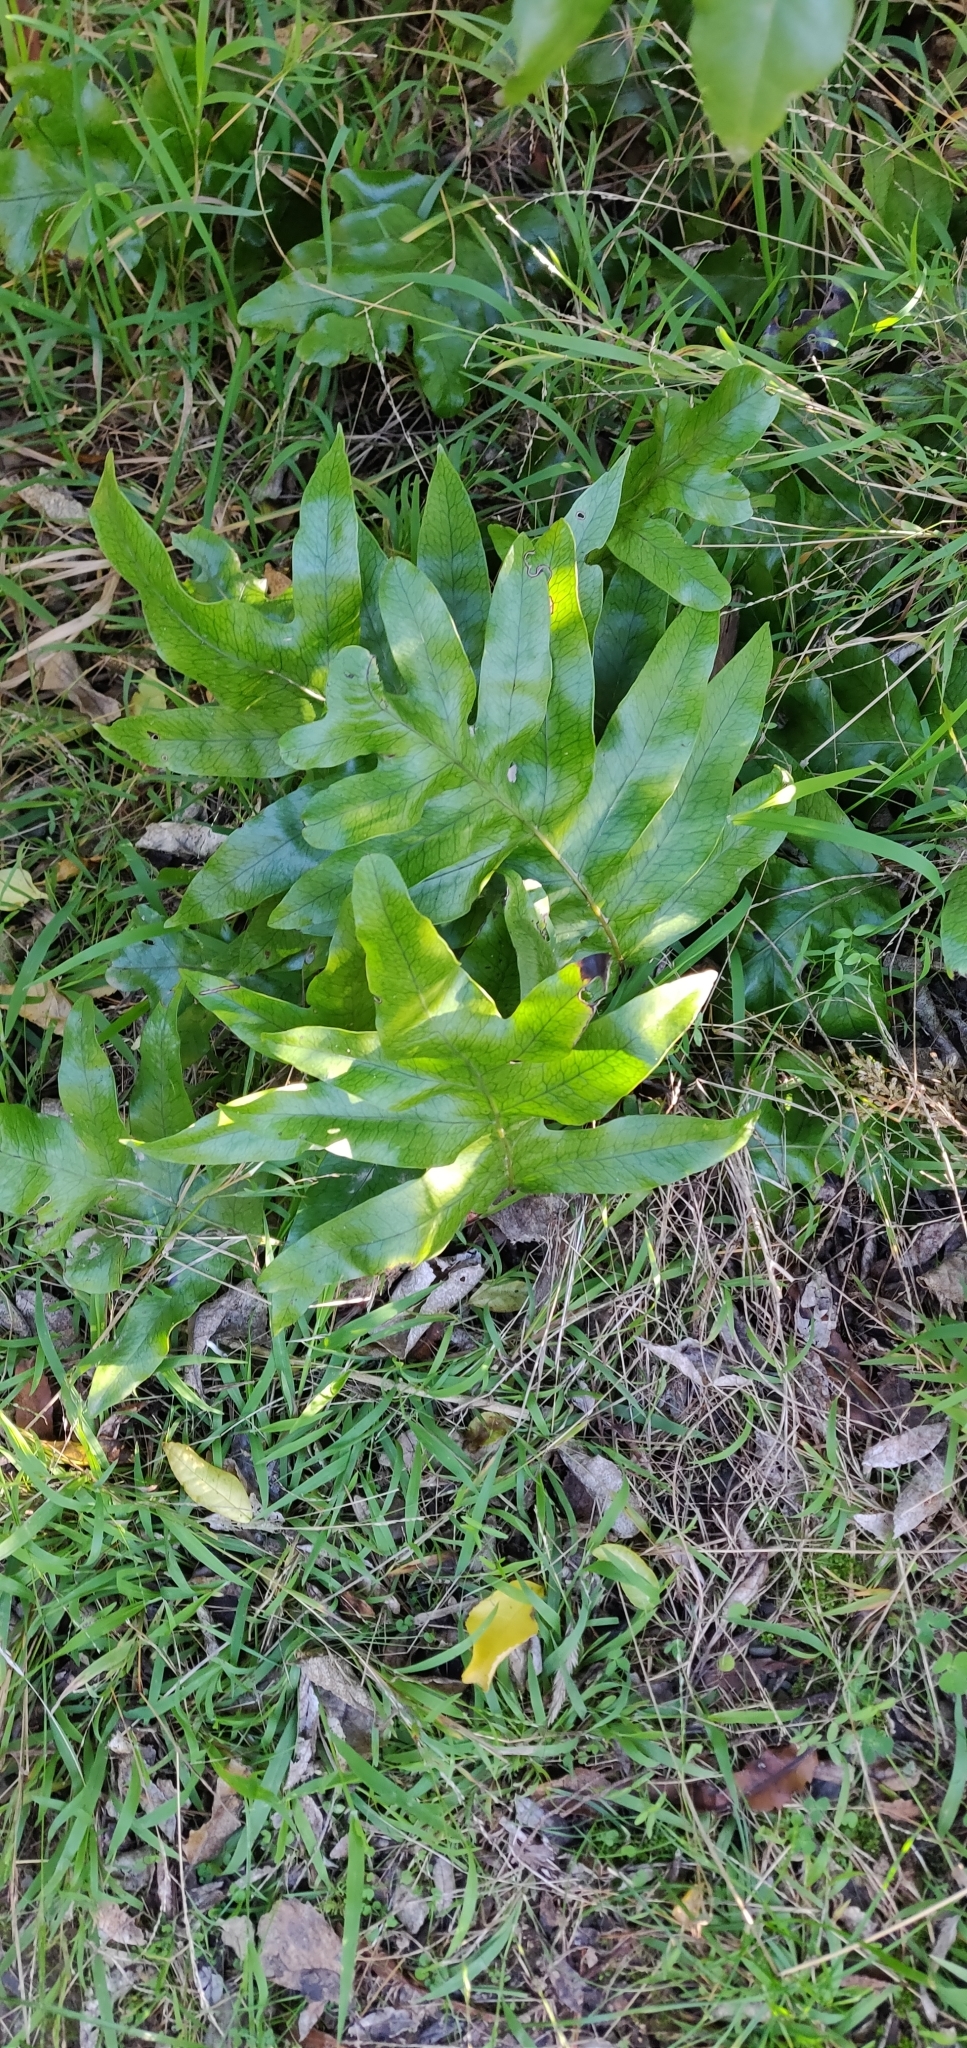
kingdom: Plantae
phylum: Tracheophyta
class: Polypodiopsida
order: Polypodiales
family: Polypodiaceae
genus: Lecanopteris
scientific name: Lecanopteris pustulata
